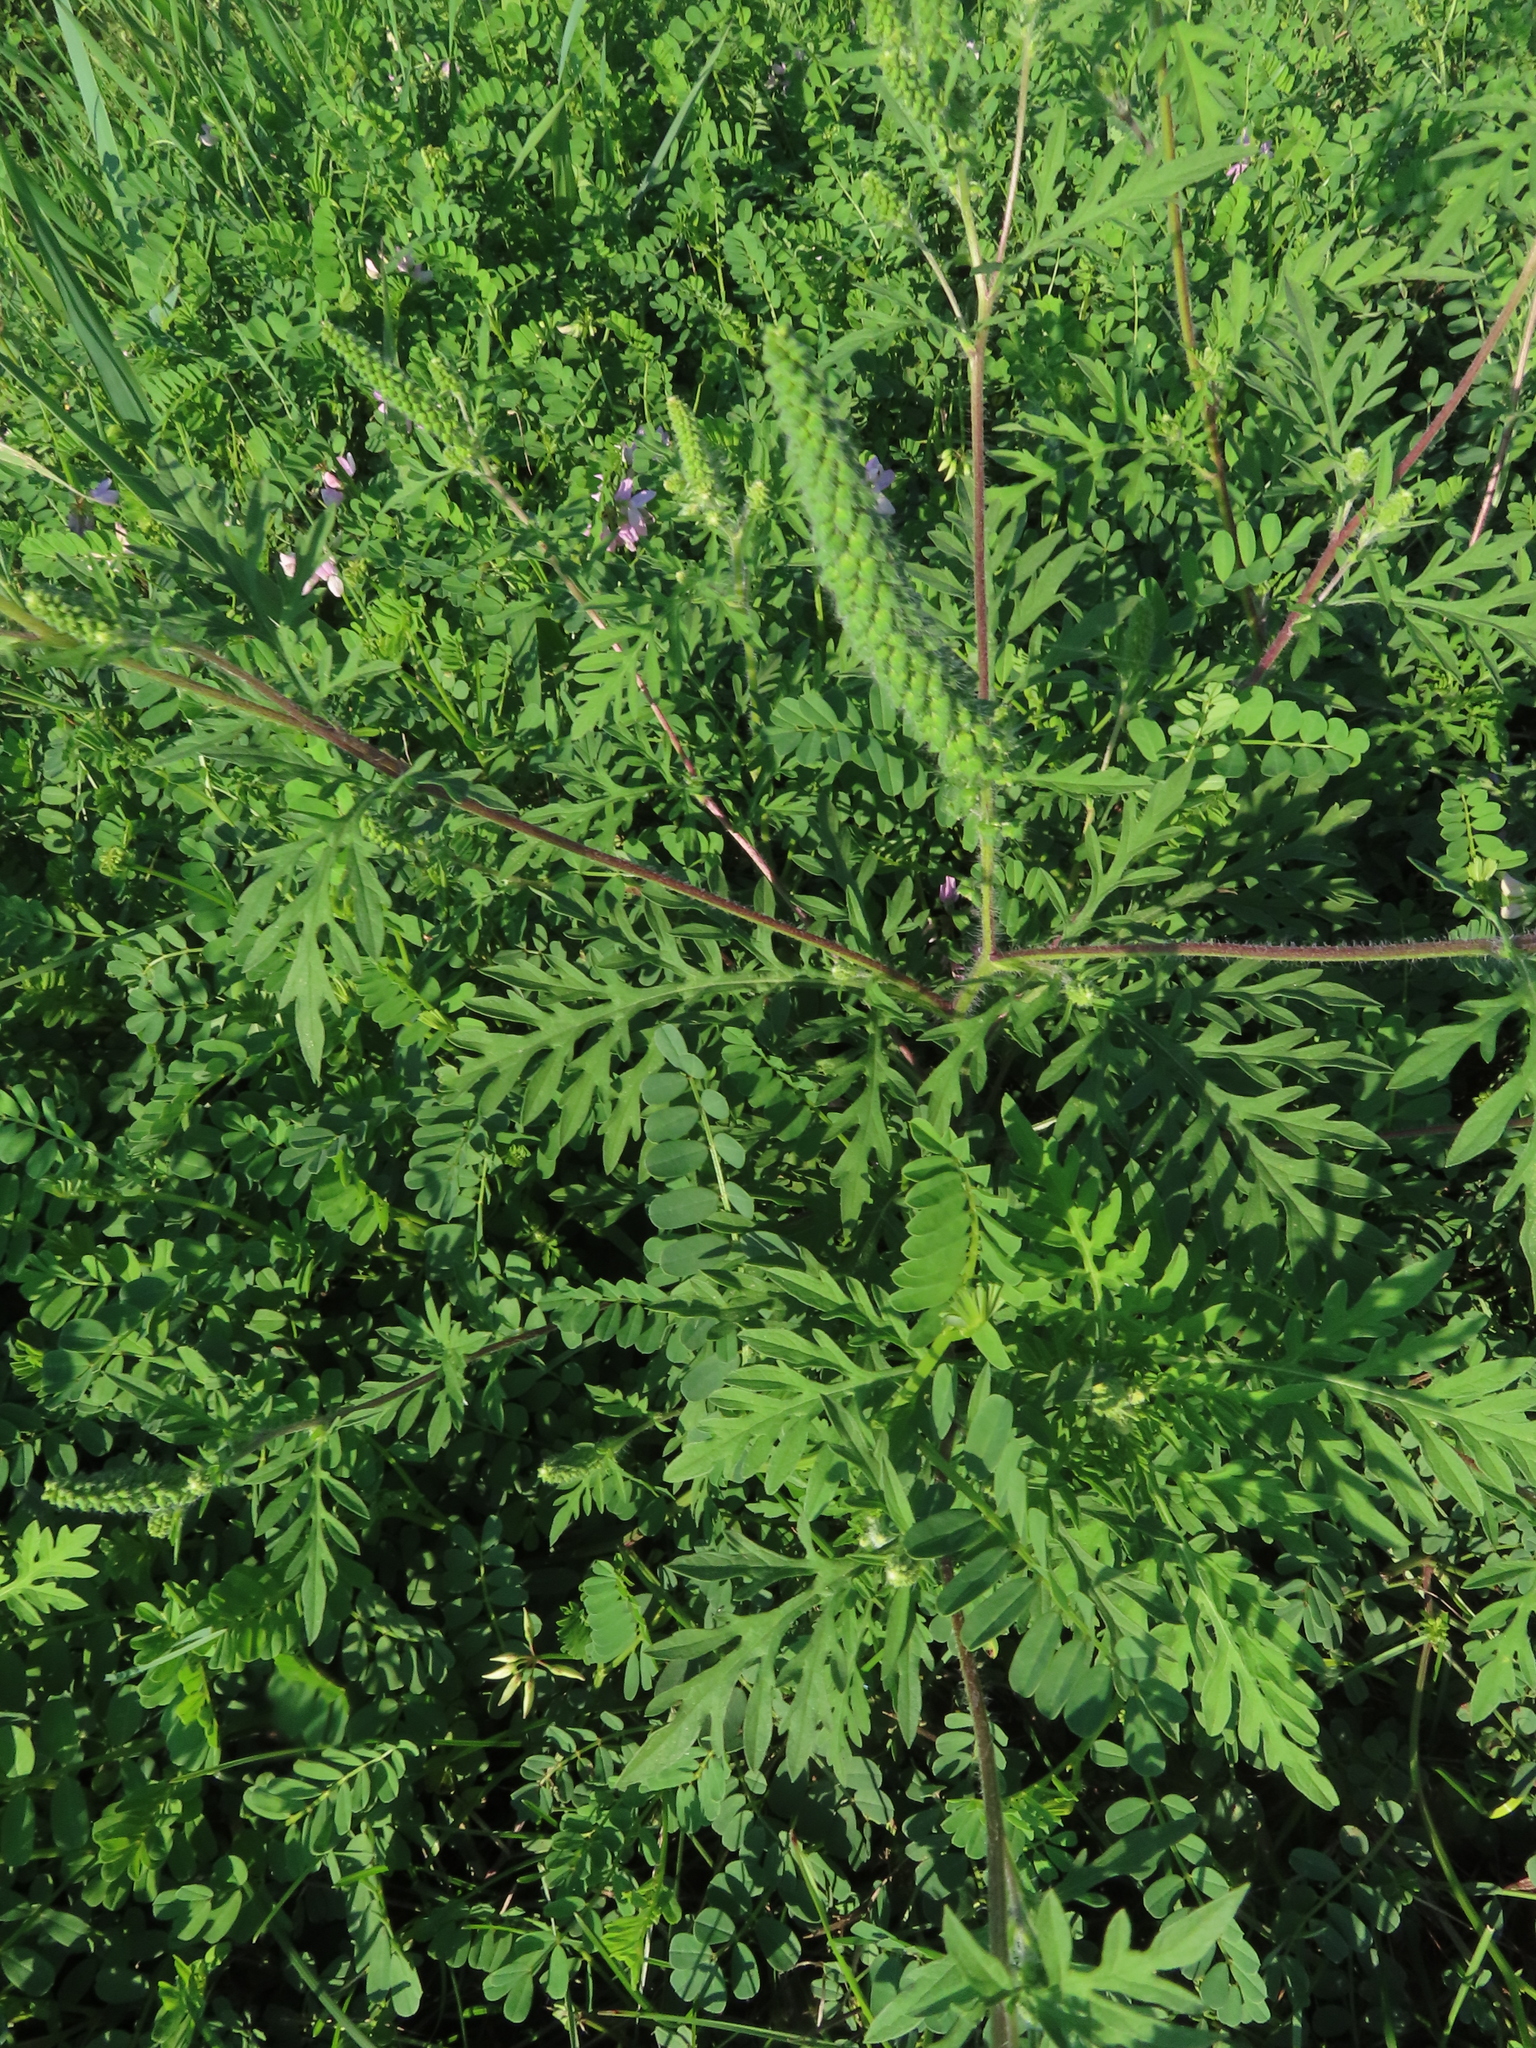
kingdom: Plantae
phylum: Tracheophyta
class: Magnoliopsida
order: Asterales
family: Asteraceae
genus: Ambrosia
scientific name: Ambrosia artemisiifolia
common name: Annual ragweed
